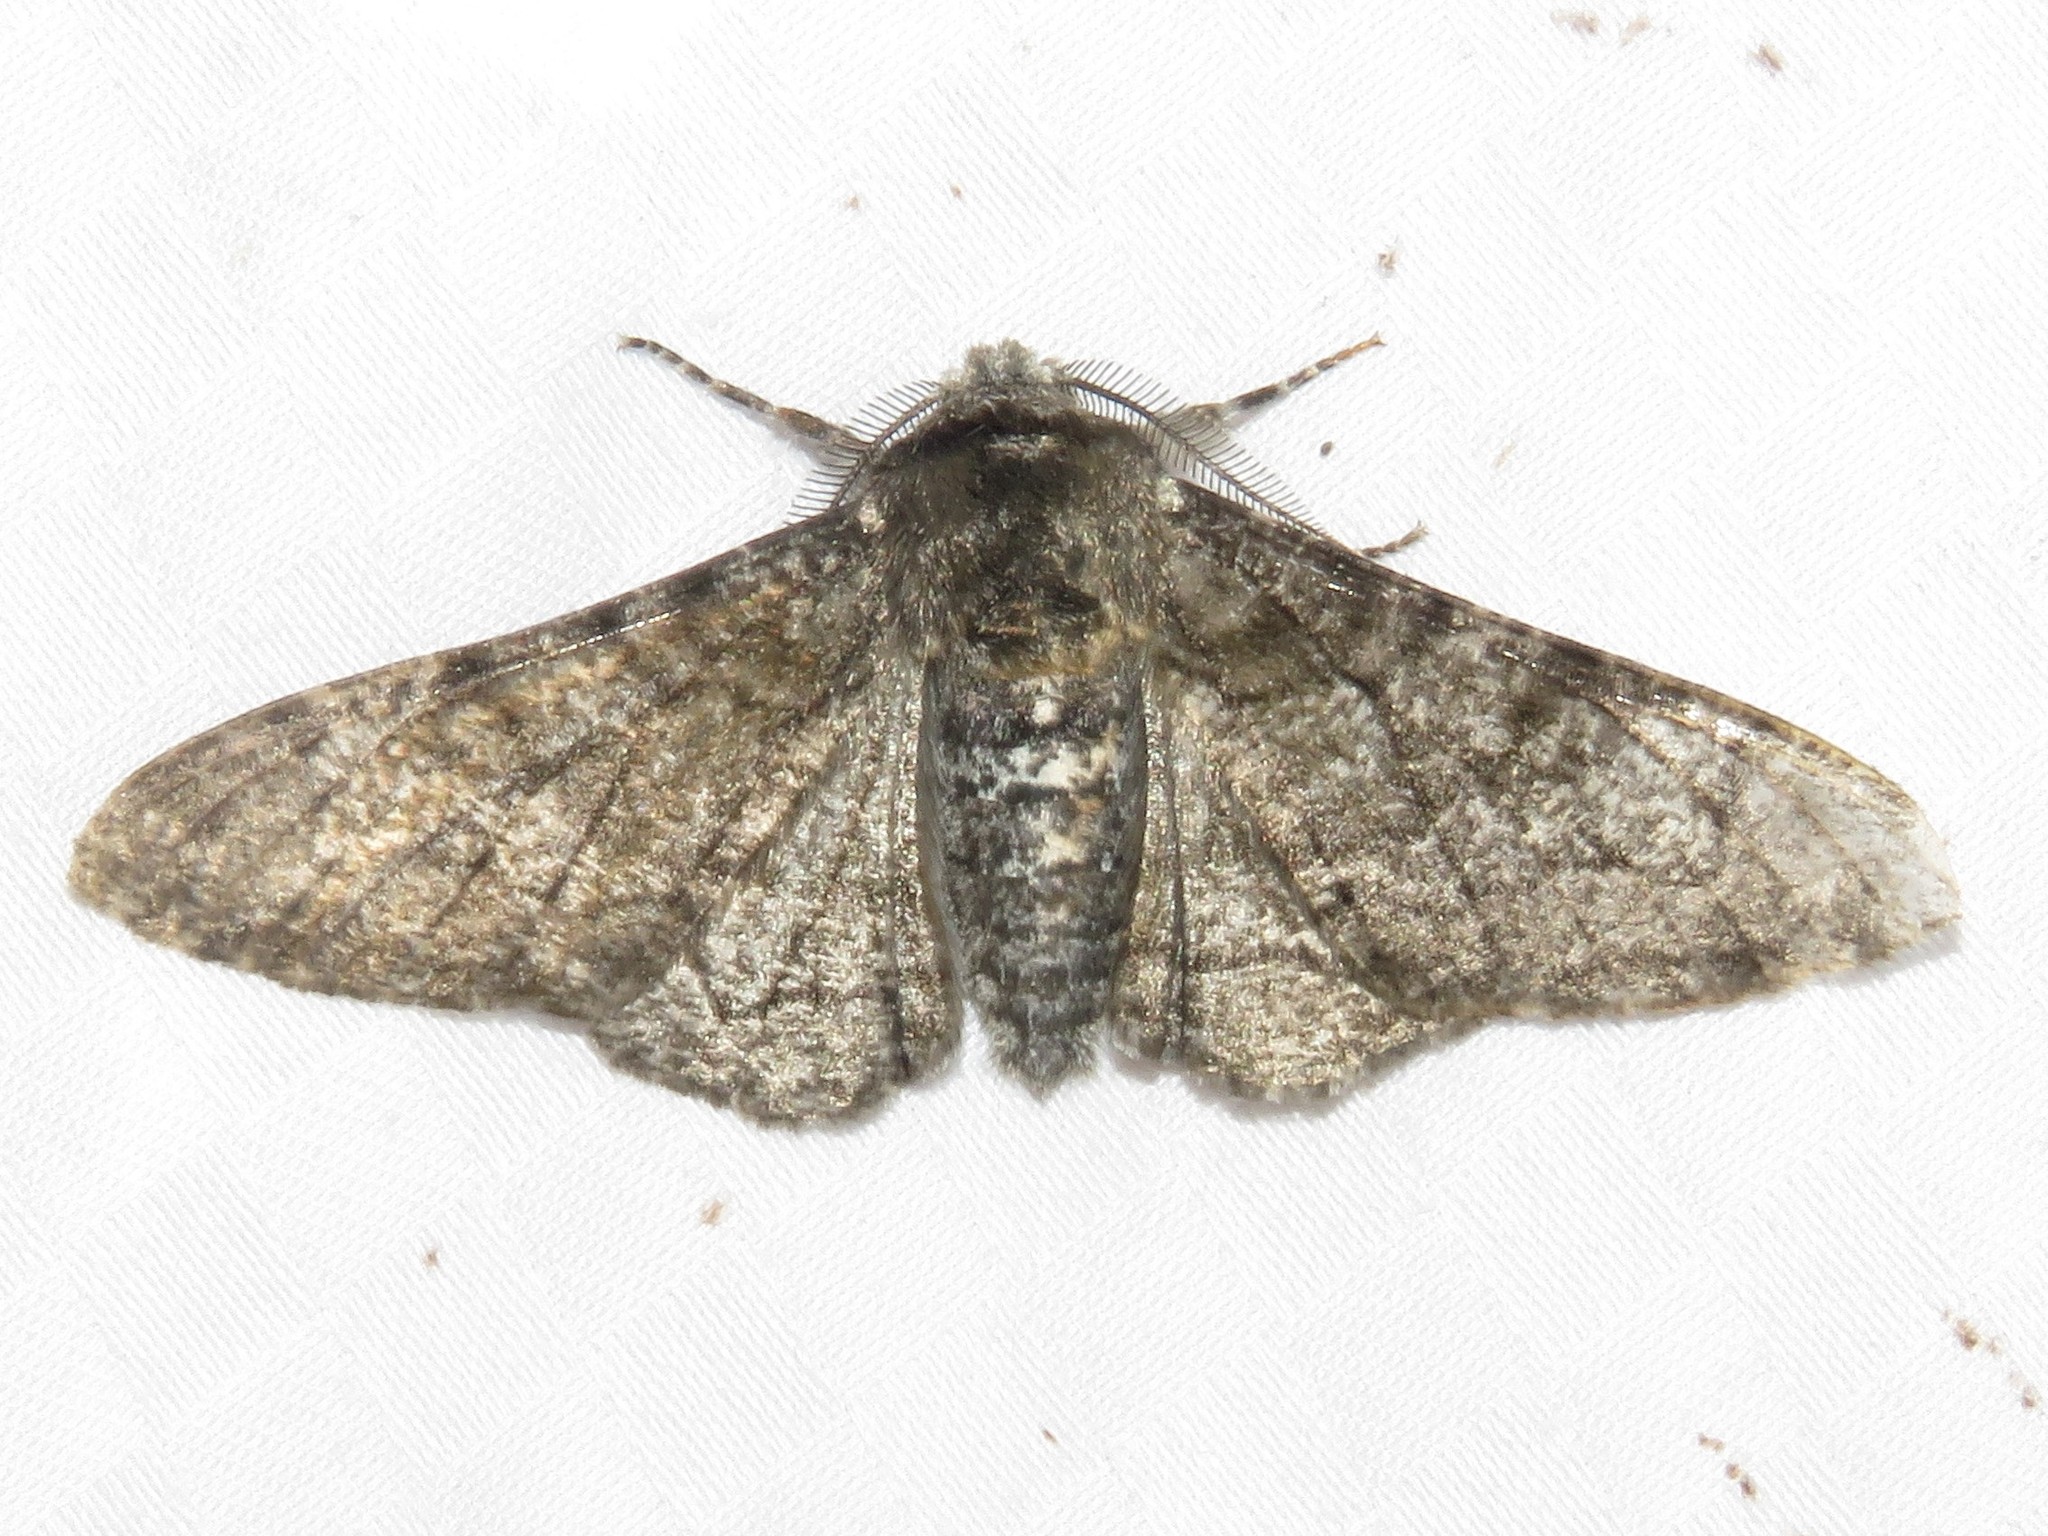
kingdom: Animalia
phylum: Arthropoda
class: Insecta
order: Lepidoptera
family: Geometridae
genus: Biston
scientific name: Biston betularia
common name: Peppered moth
